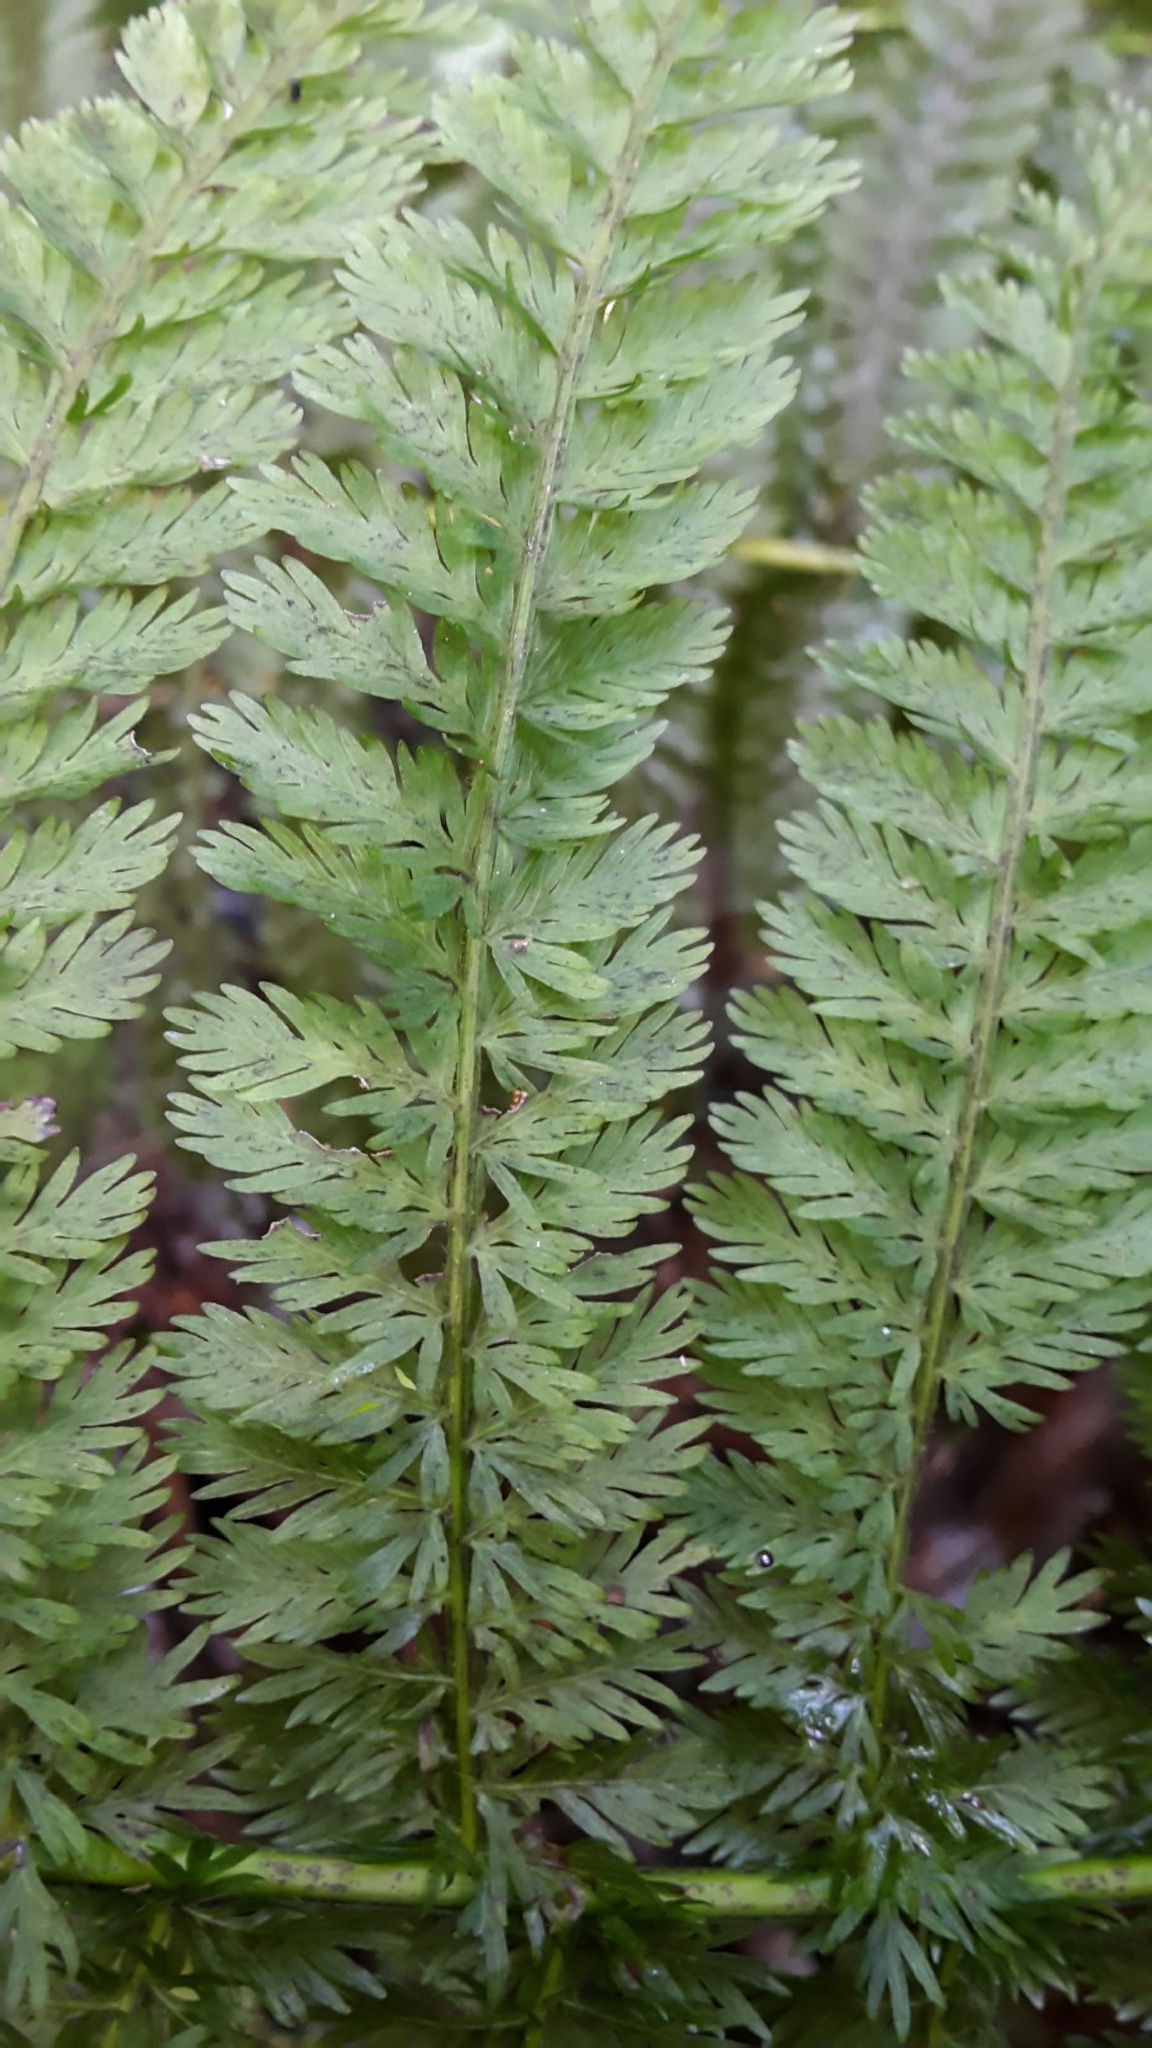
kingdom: Plantae
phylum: Tracheophyta
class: Polypodiopsida
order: Osmundales
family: Osmundaceae
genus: Leptopteris
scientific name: Leptopteris intermedia
